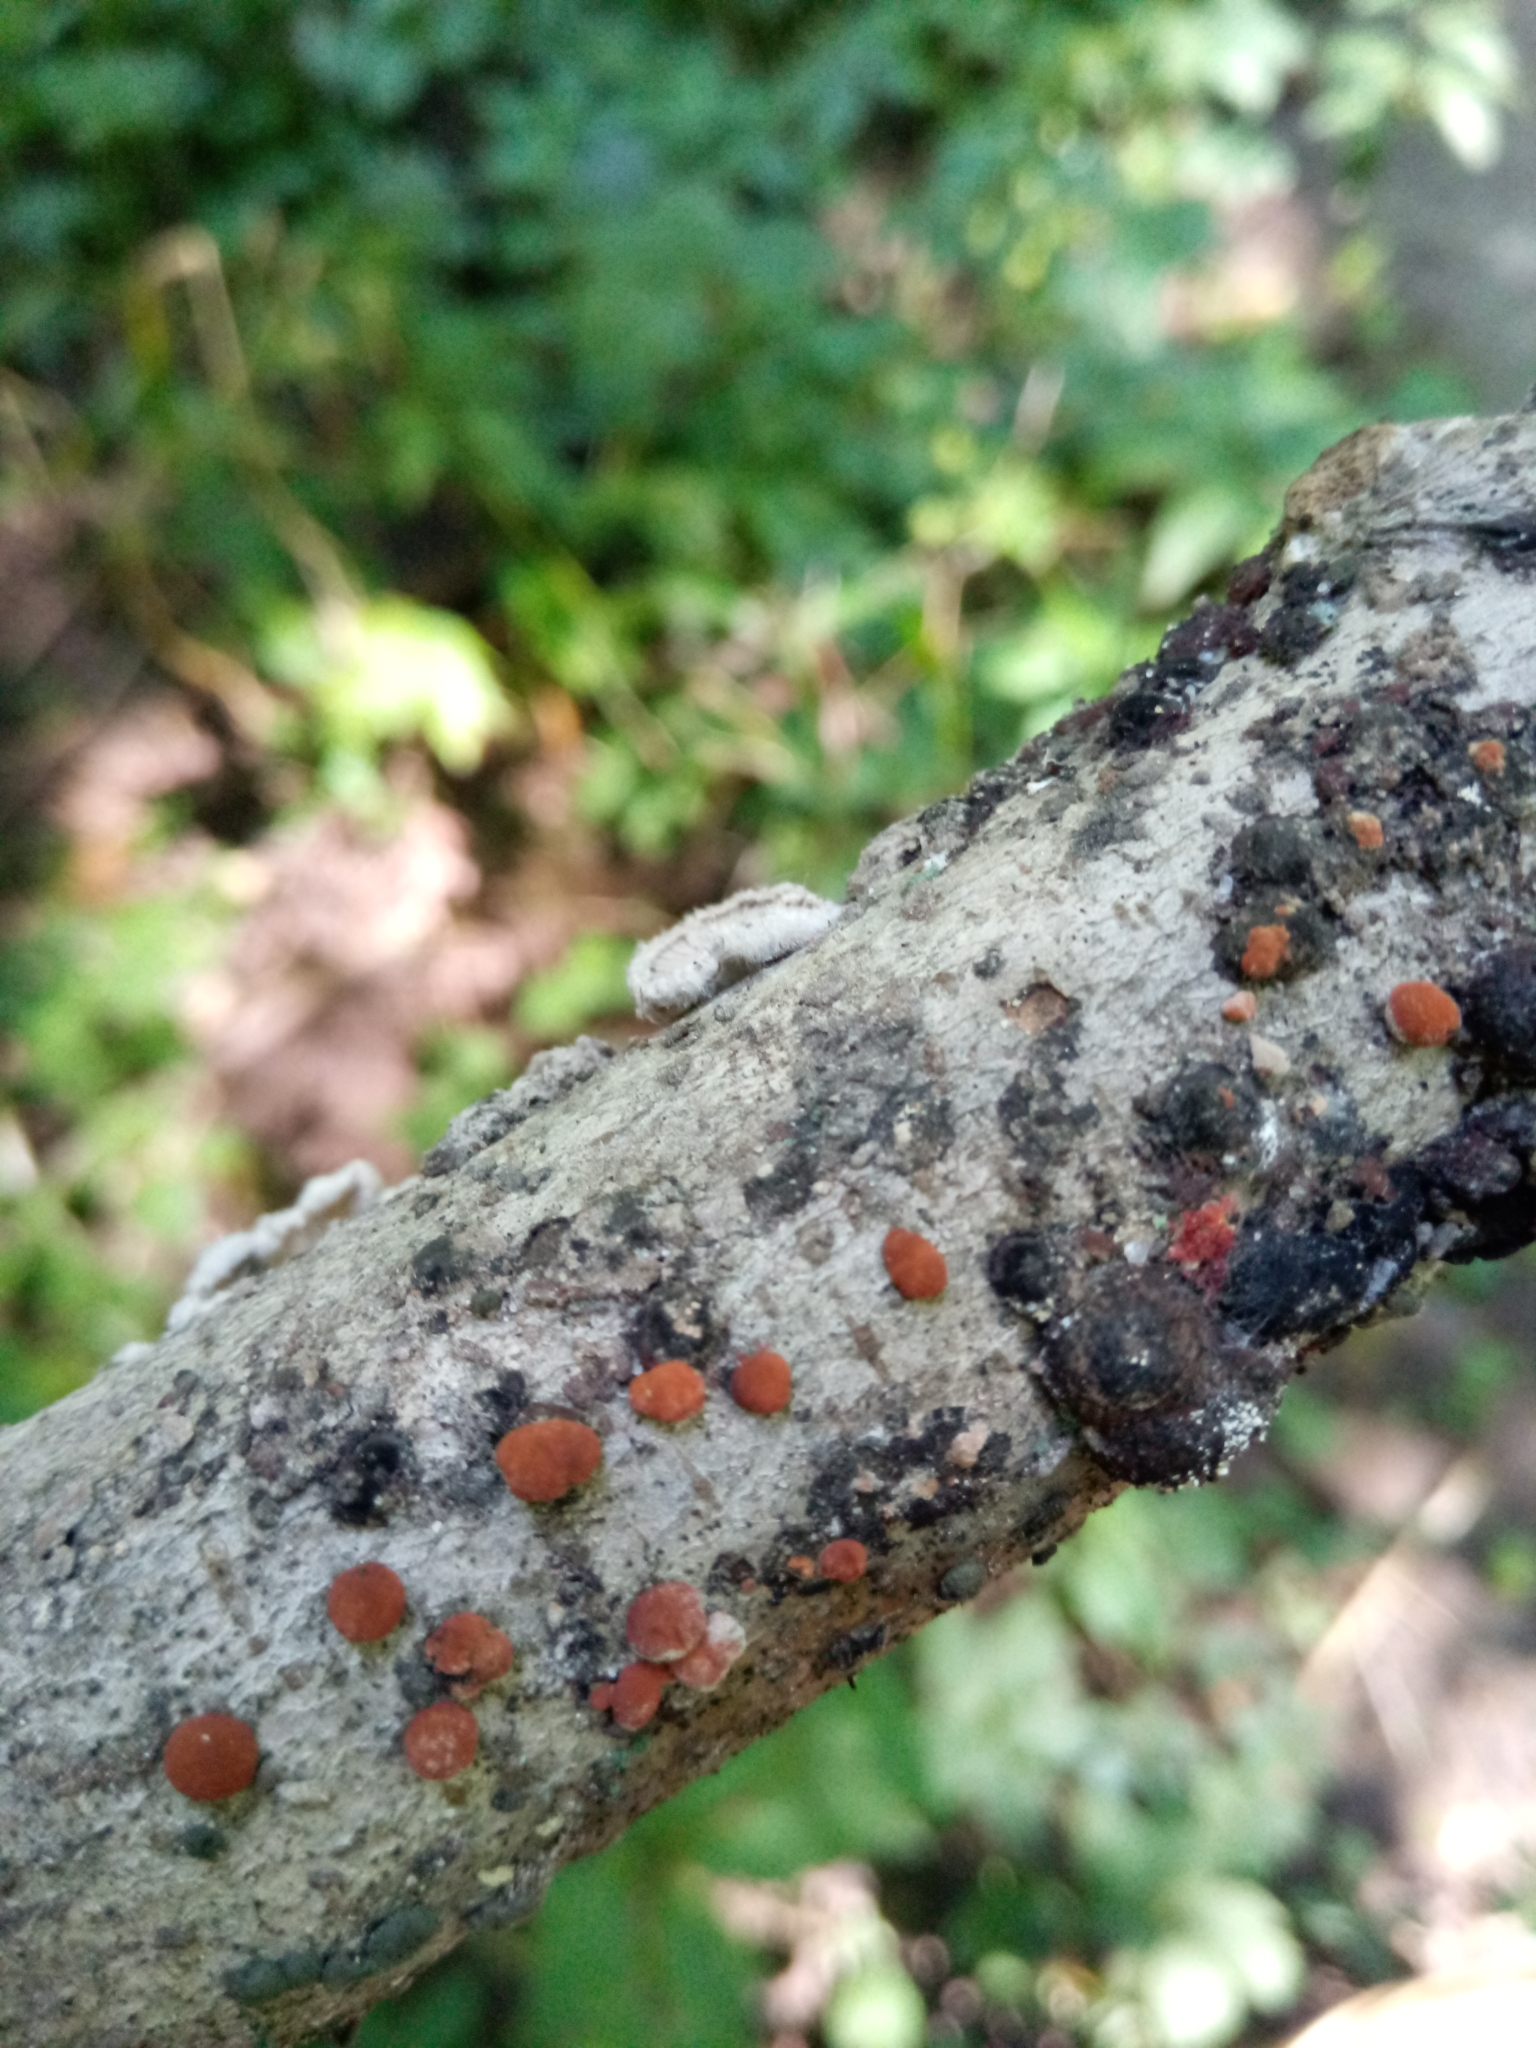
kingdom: Fungi
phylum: Ascomycota
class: Sordariomycetes
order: Xylariales
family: Hypoxylaceae
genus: Hypoxylon
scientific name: Hypoxylon fragiforme
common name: Beech woodwart
